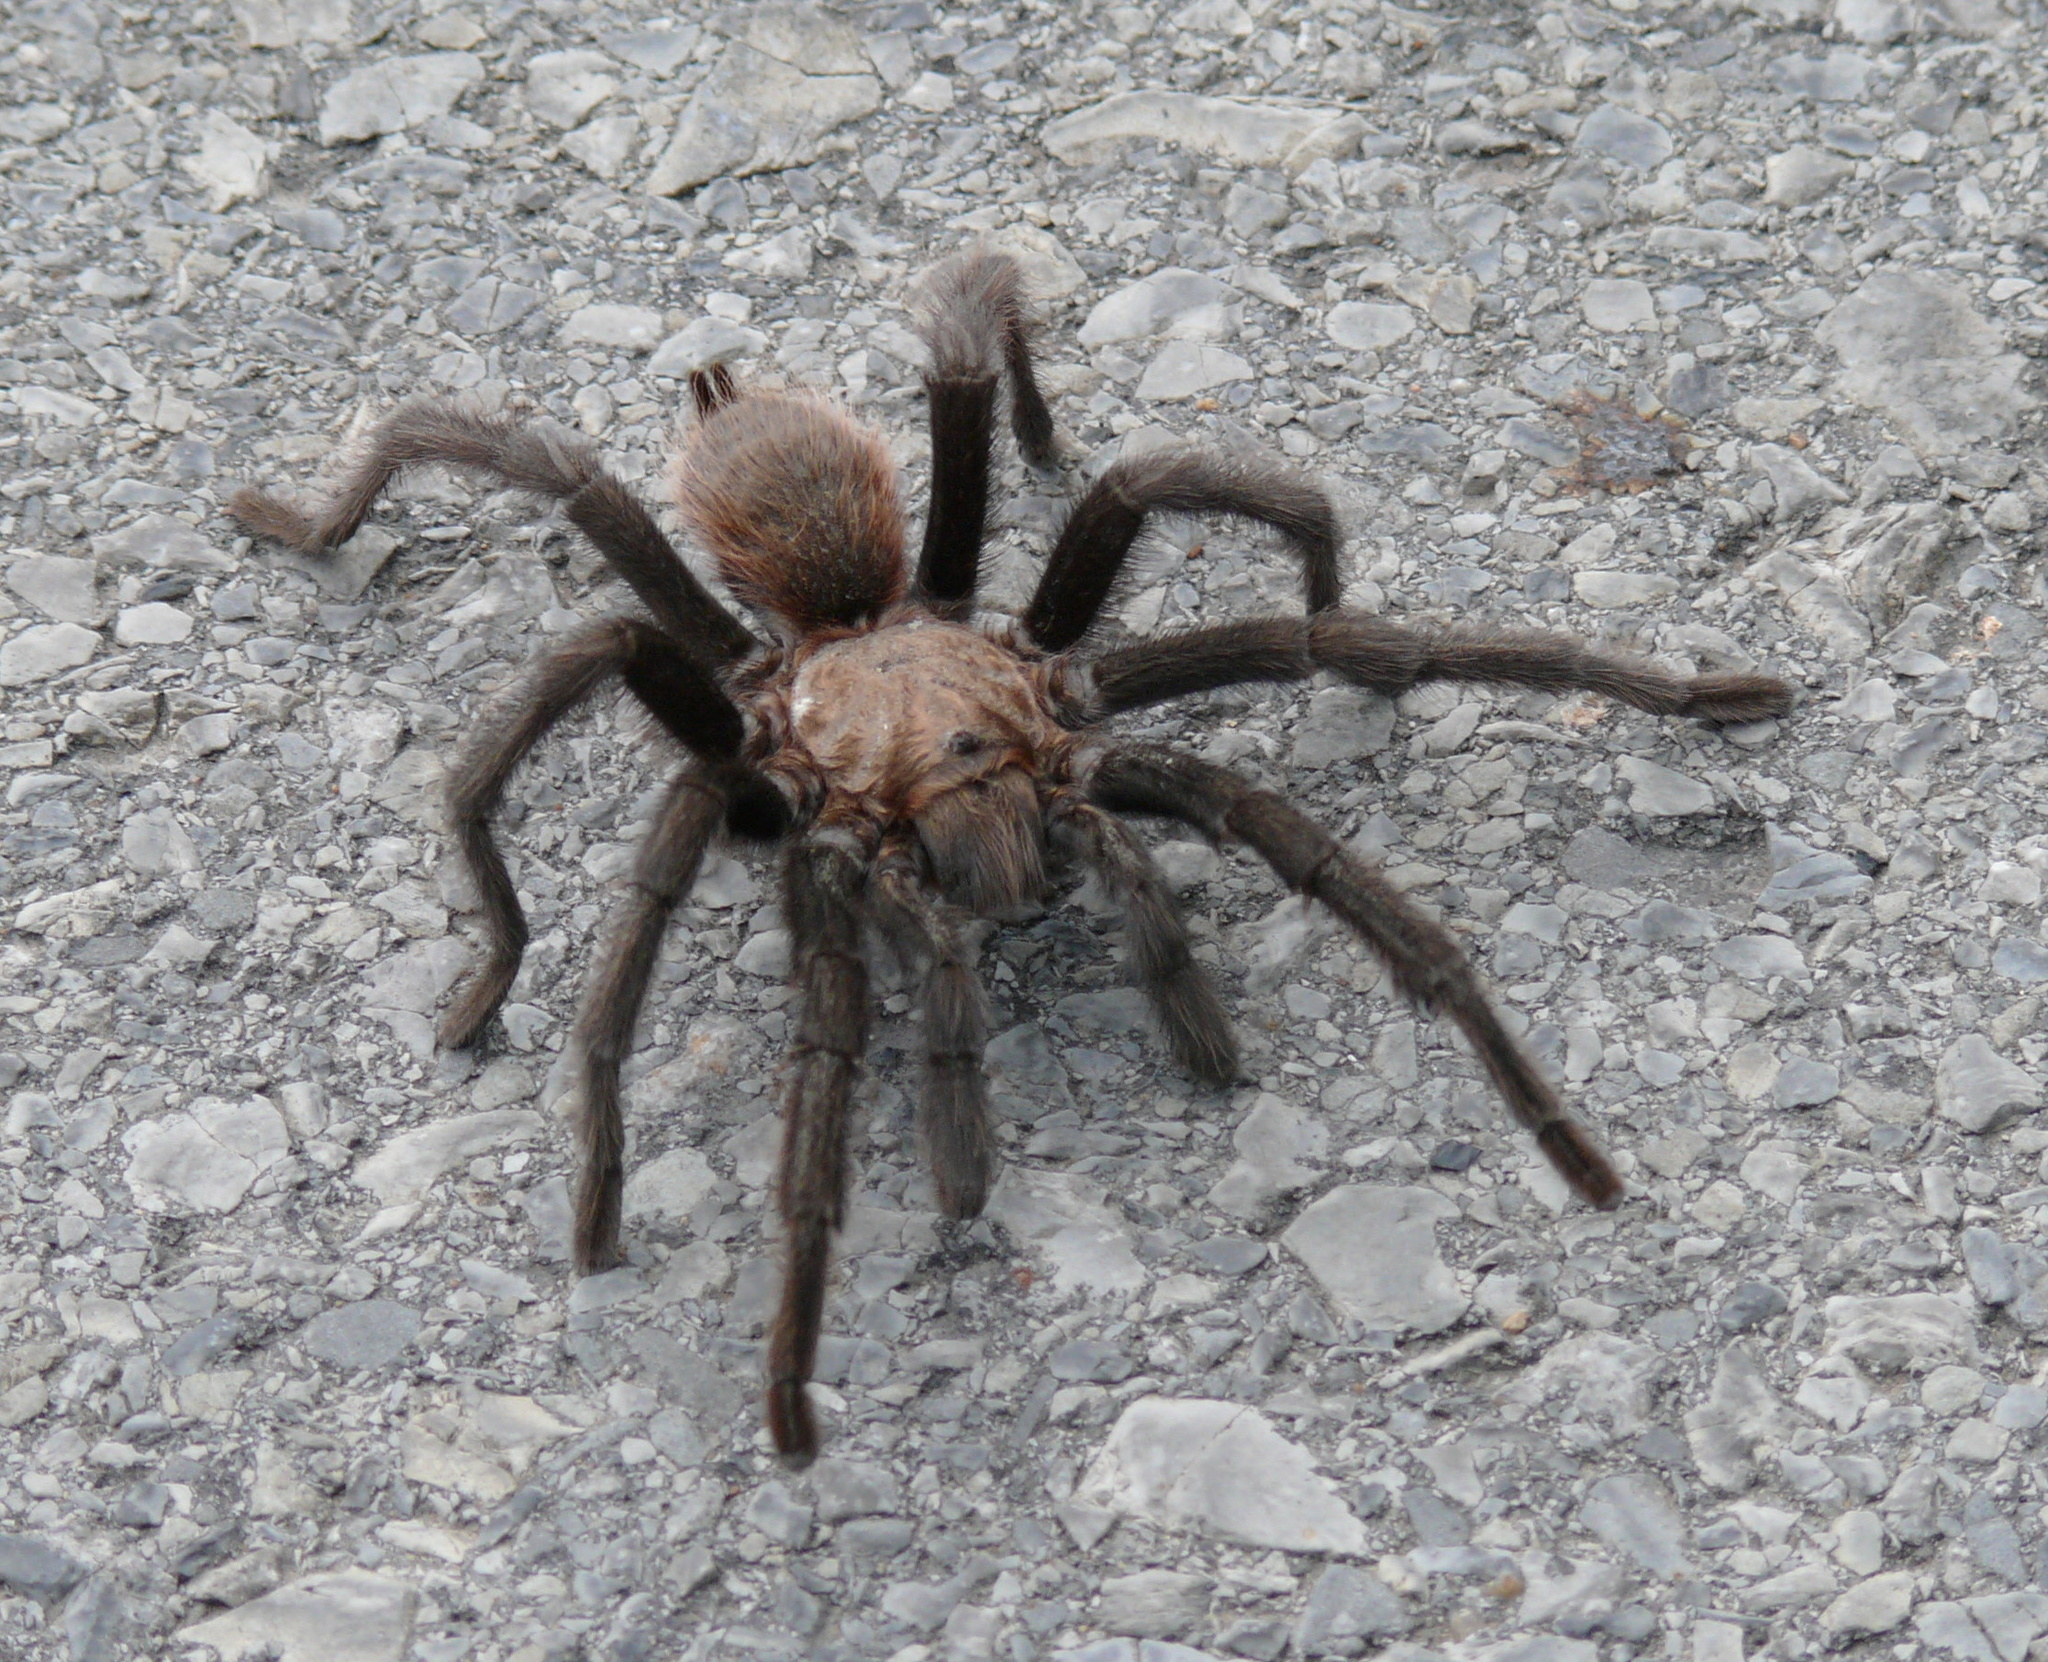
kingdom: Animalia
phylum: Arthropoda
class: Arachnida
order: Araneae
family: Theraphosidae
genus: Aphonopelma
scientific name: Aphonopelma hentzi
